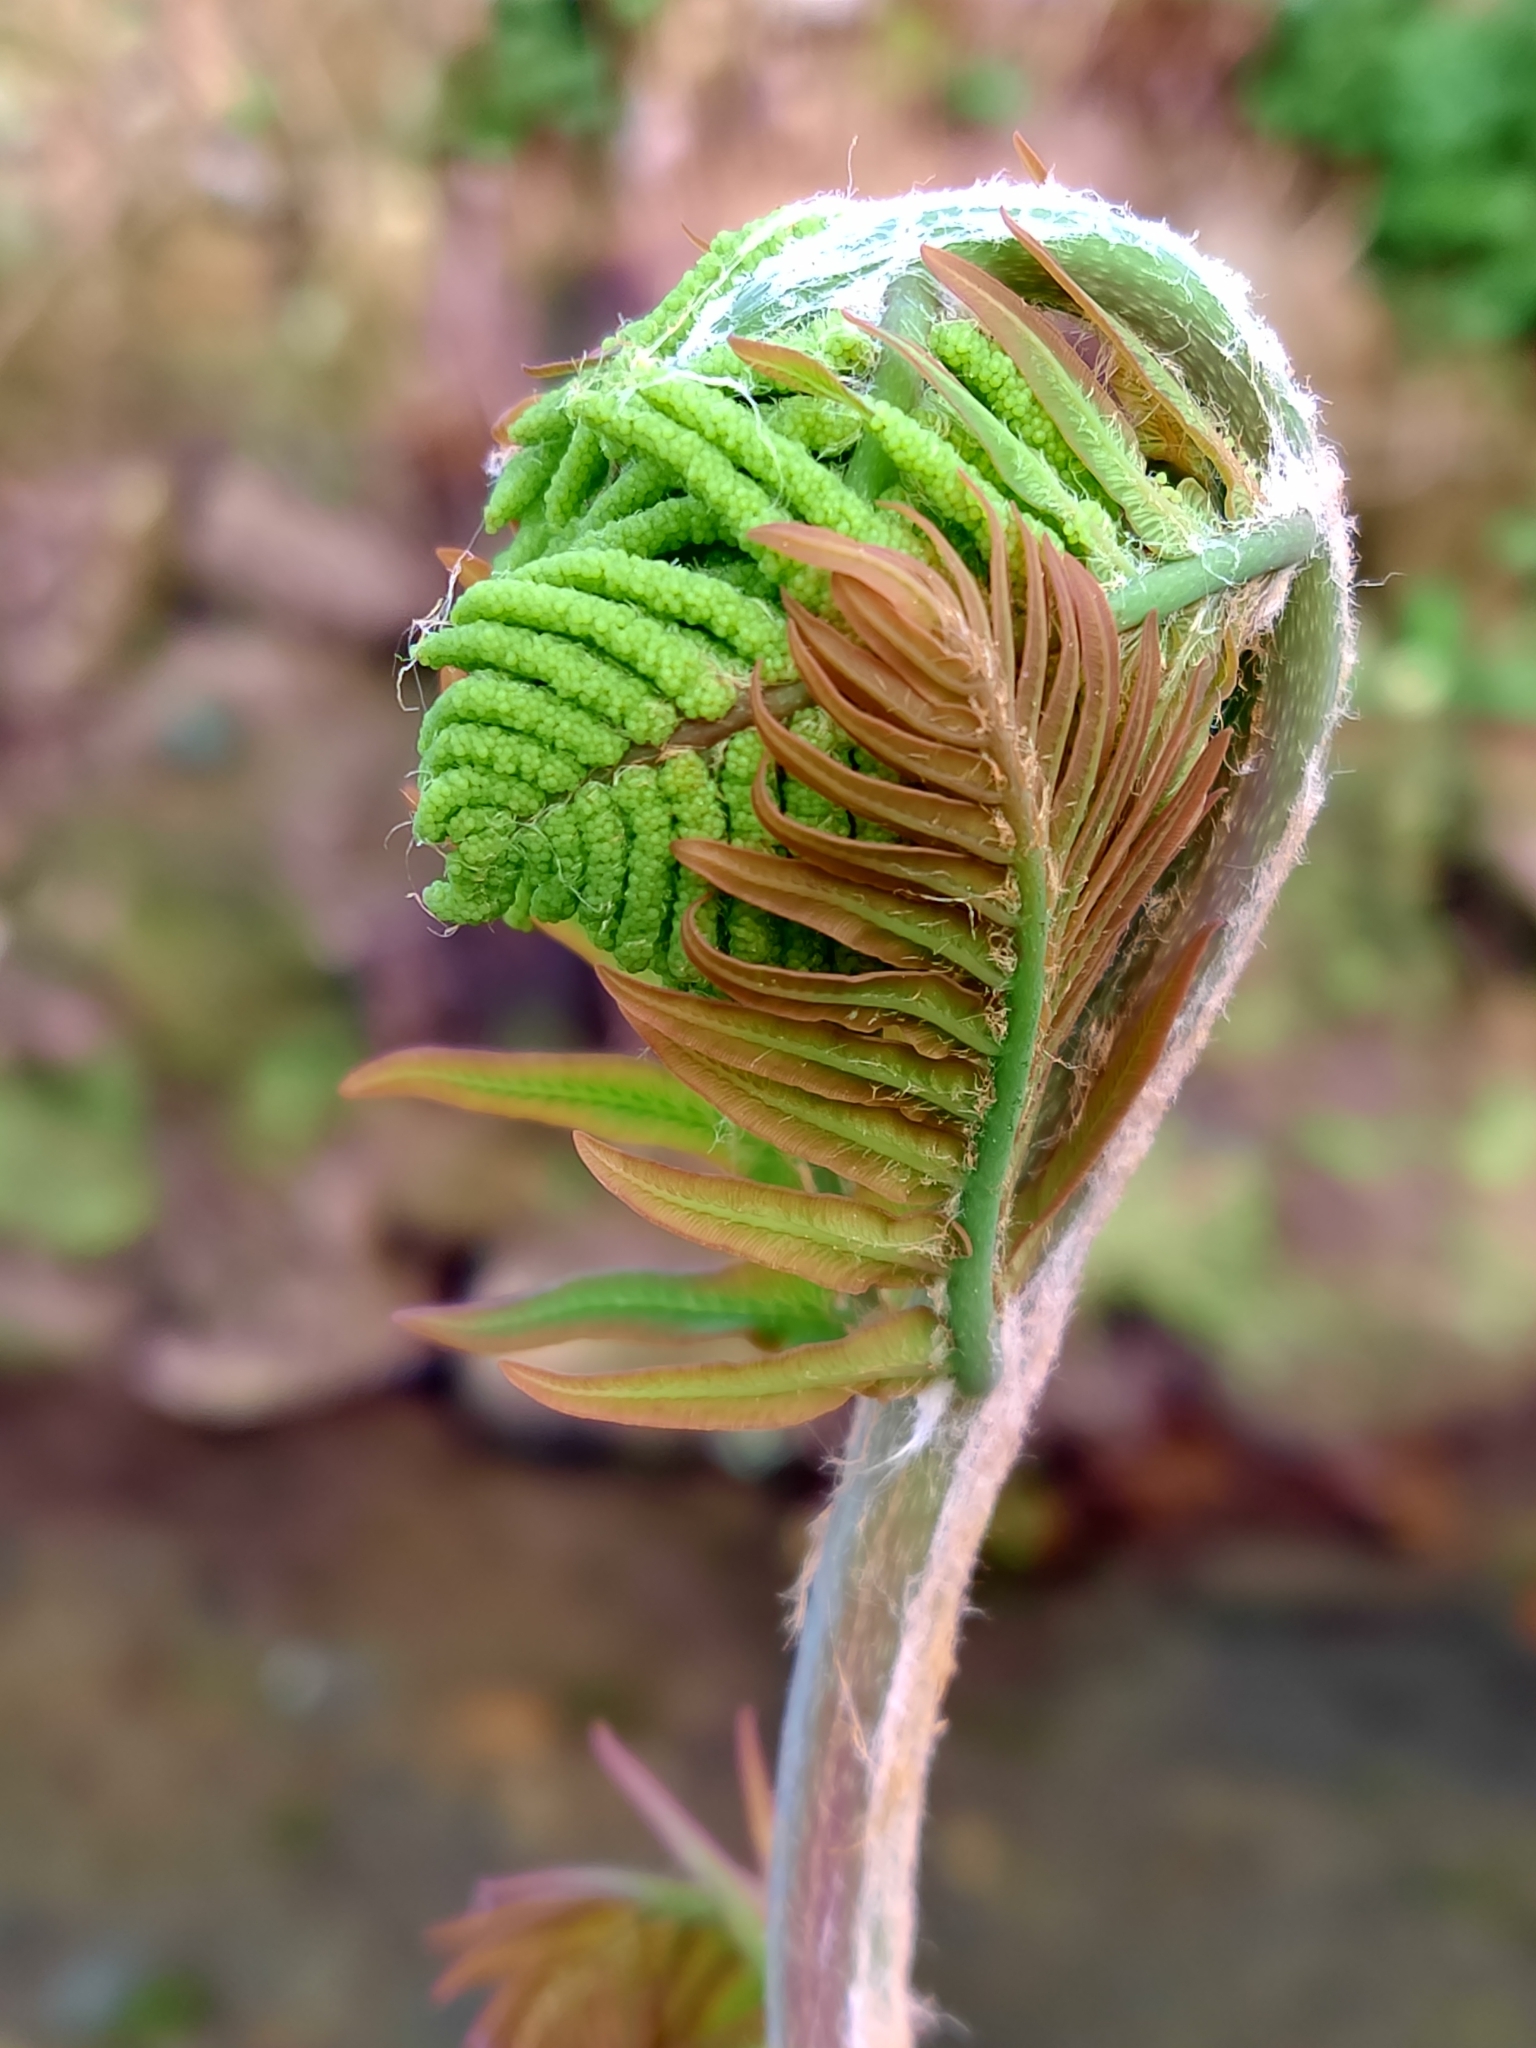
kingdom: Plantae
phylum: Tracheophyta
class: Polypodiopsida
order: Osmundales
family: Osmundaceae
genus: Osmunda
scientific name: Osmunda regalis
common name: Royal fern
